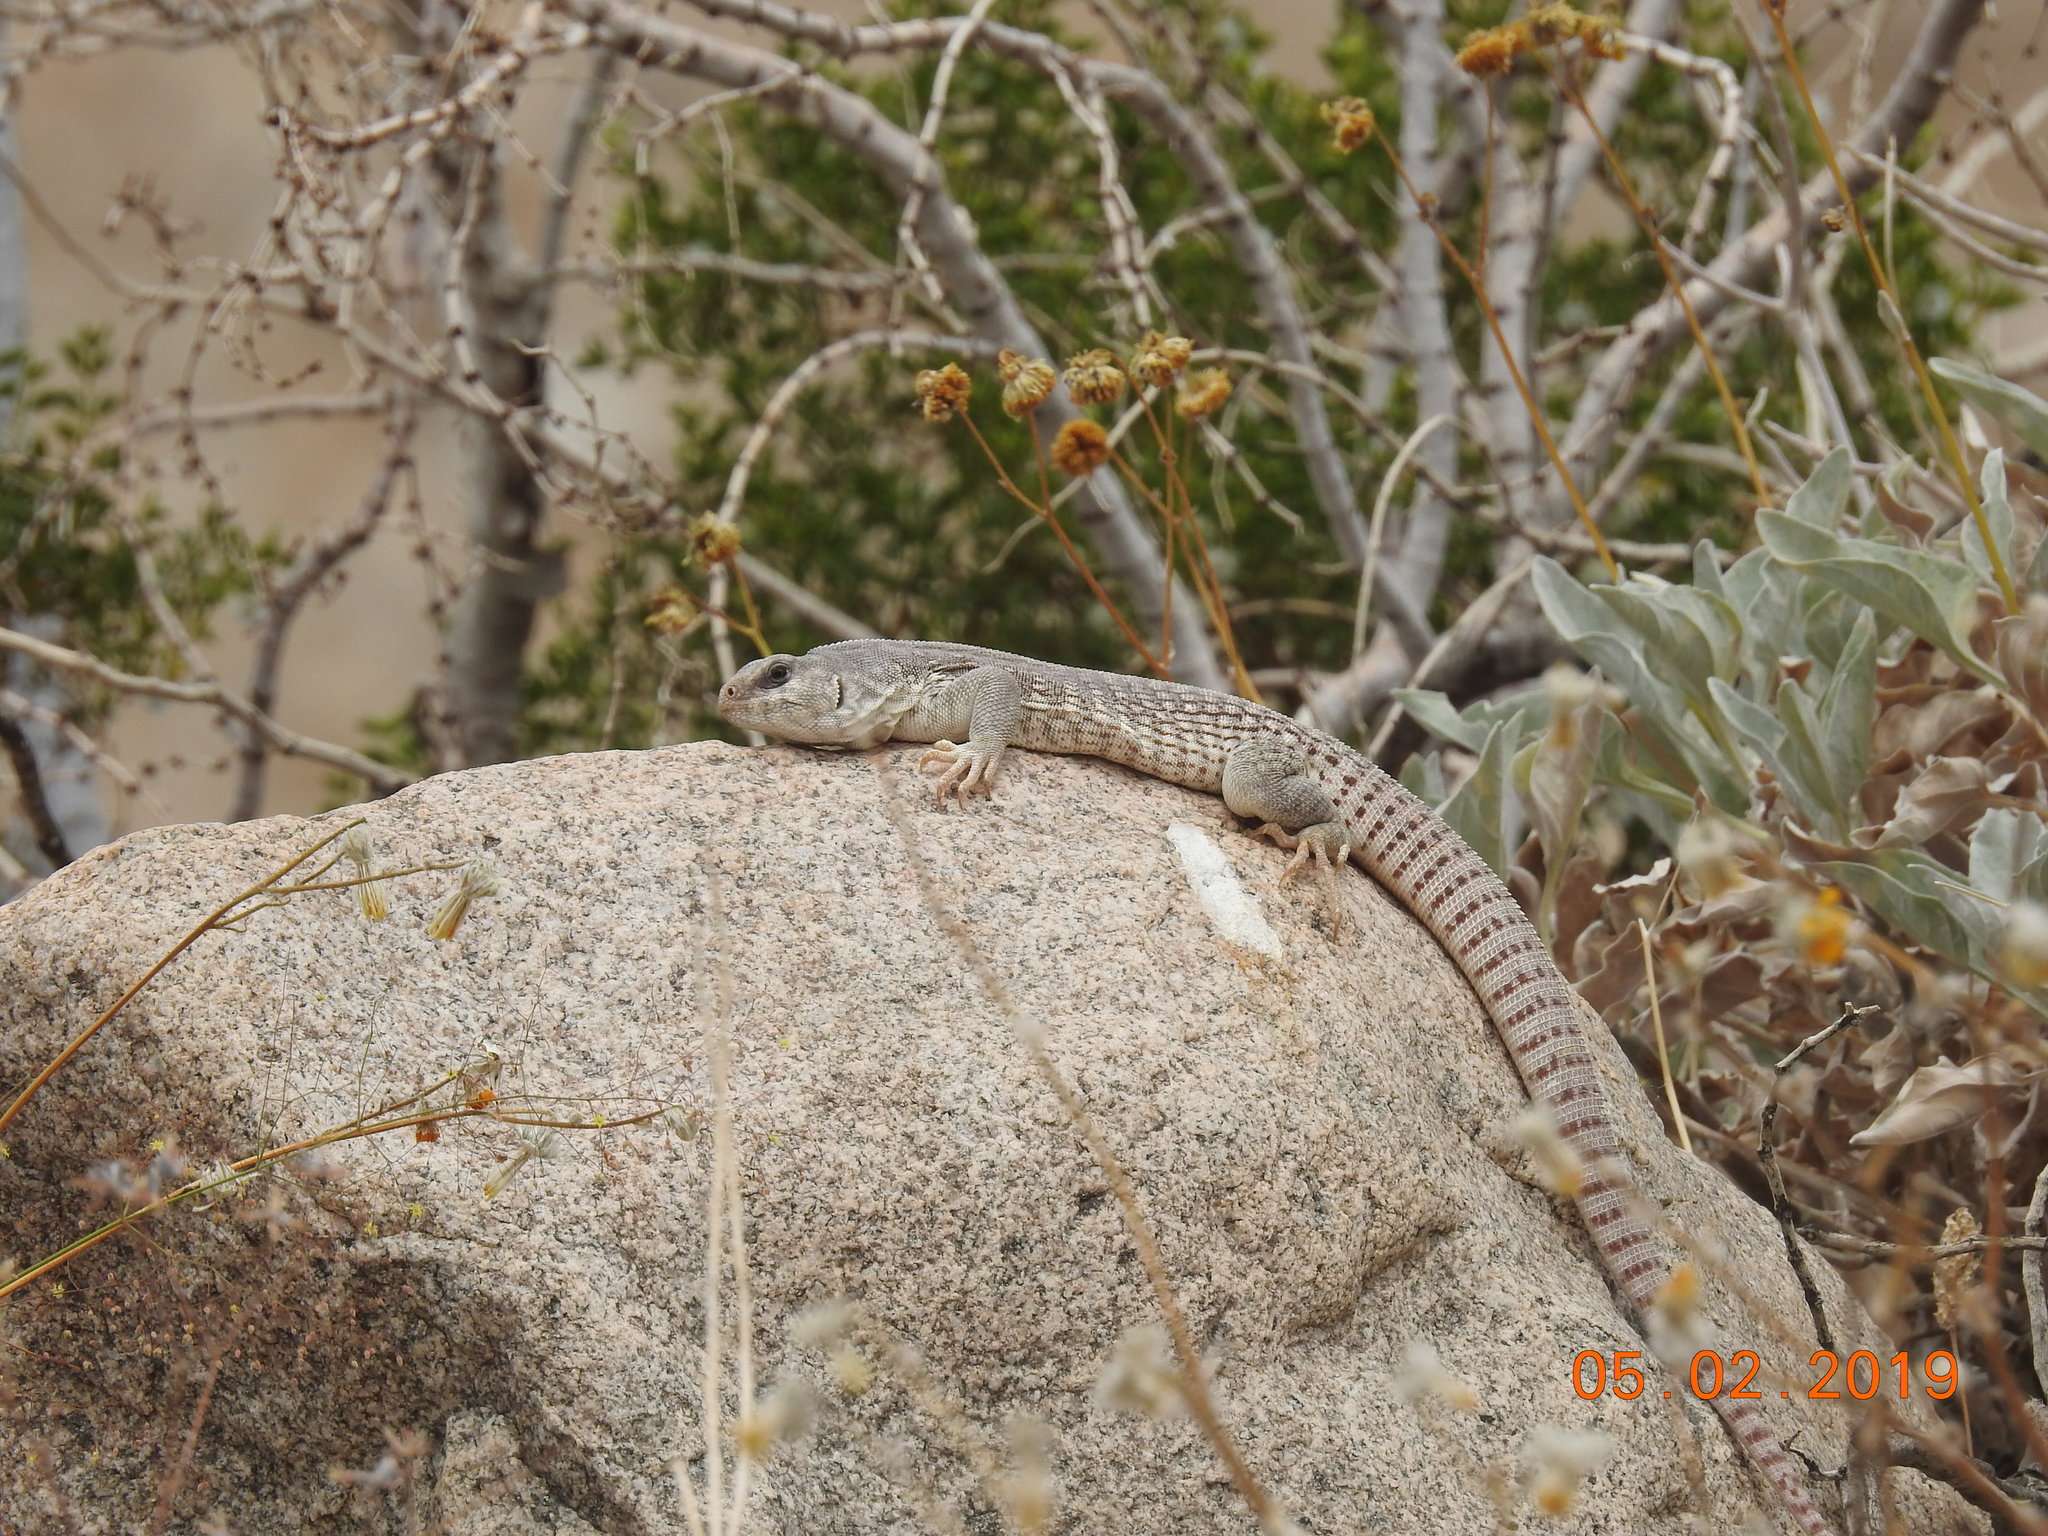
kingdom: Animalia
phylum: Chordata
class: Squamata
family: Iguanidae
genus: Dipsosaurus
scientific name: Dipsosaurus dorsalis
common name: Desert iguana
